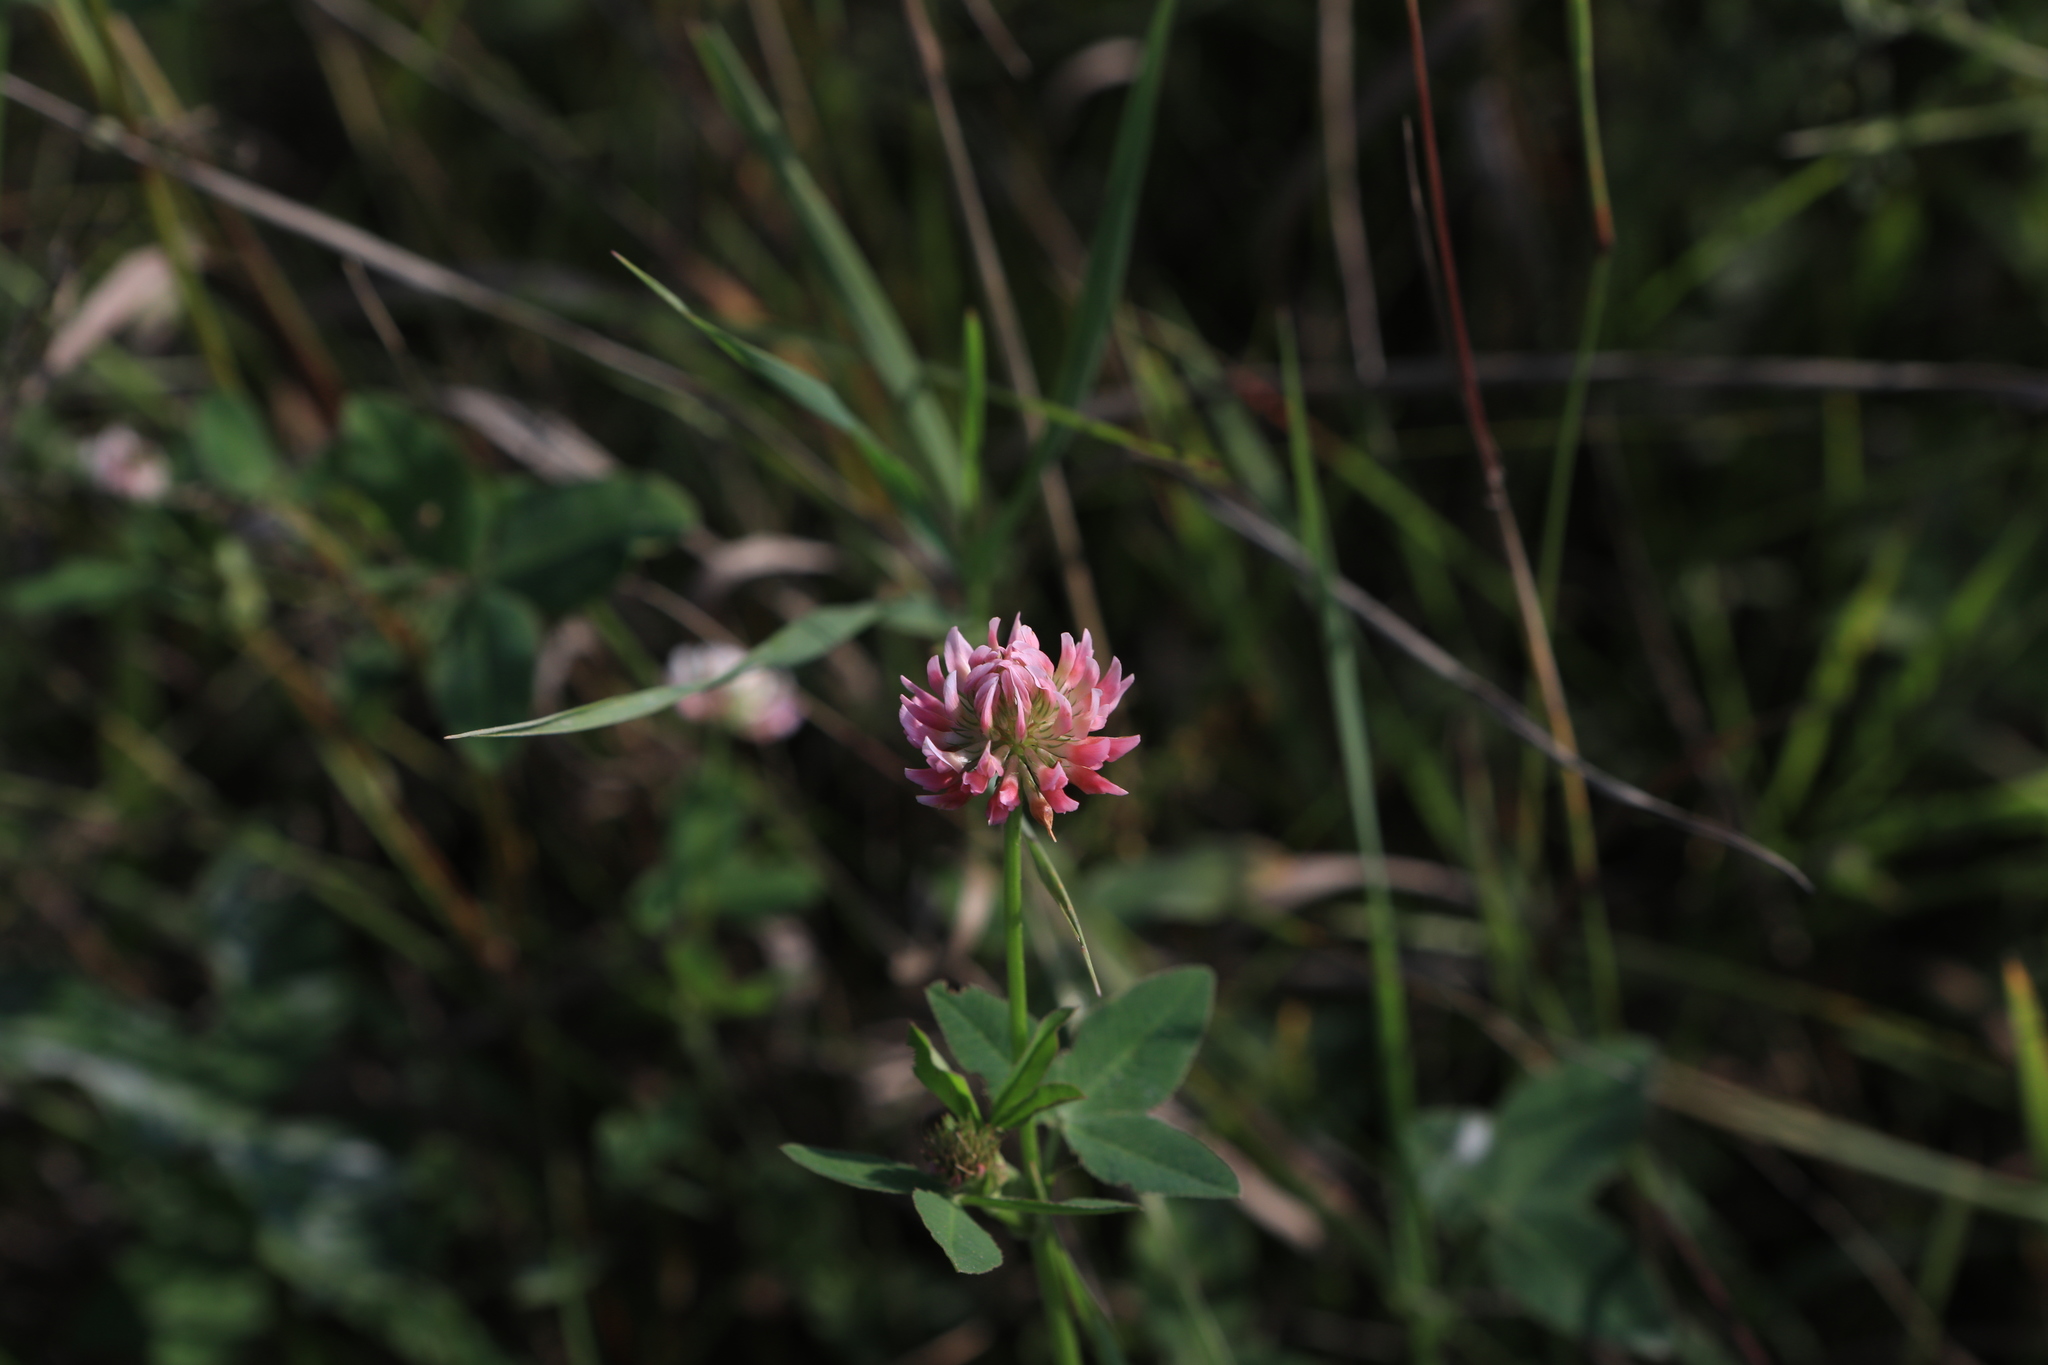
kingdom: Plantae
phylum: Tracheophyta
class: Magnoliopsida
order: Fabales
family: Fabaceae
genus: Trifolium
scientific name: Trifolium hybridum
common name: Alsike clover
